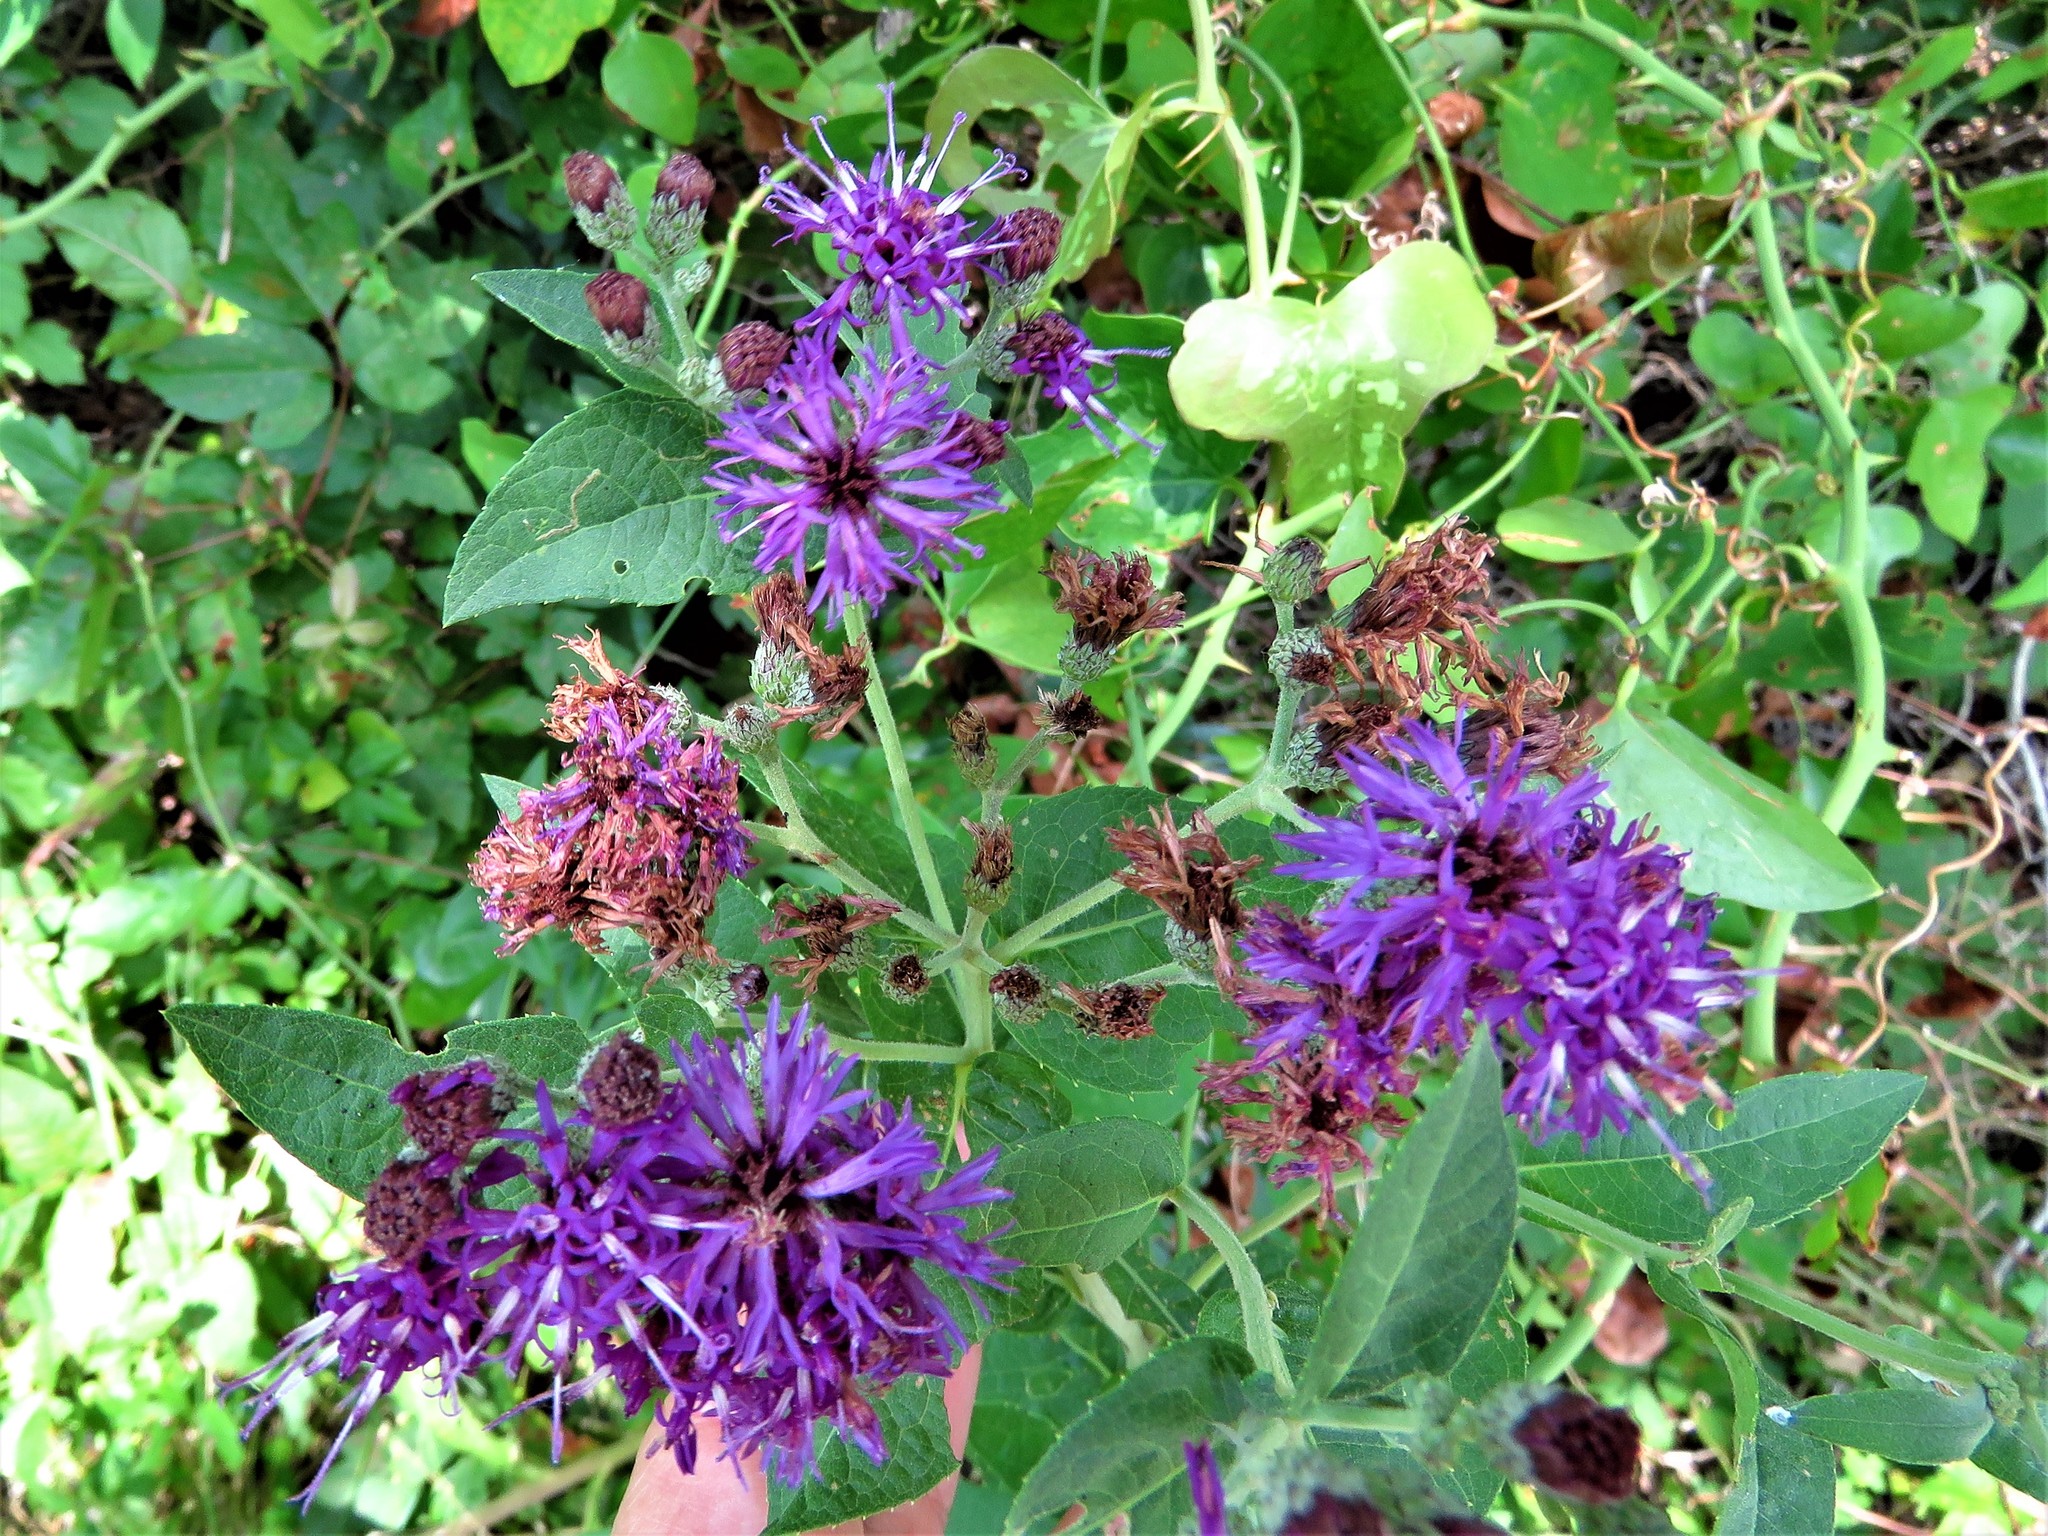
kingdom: Plantae
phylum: Tracheophyta
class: Magnoliopsida
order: Asterales
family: Asteraceae
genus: Vernonia
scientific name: Vernonia baldwinii
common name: Western ironweed
